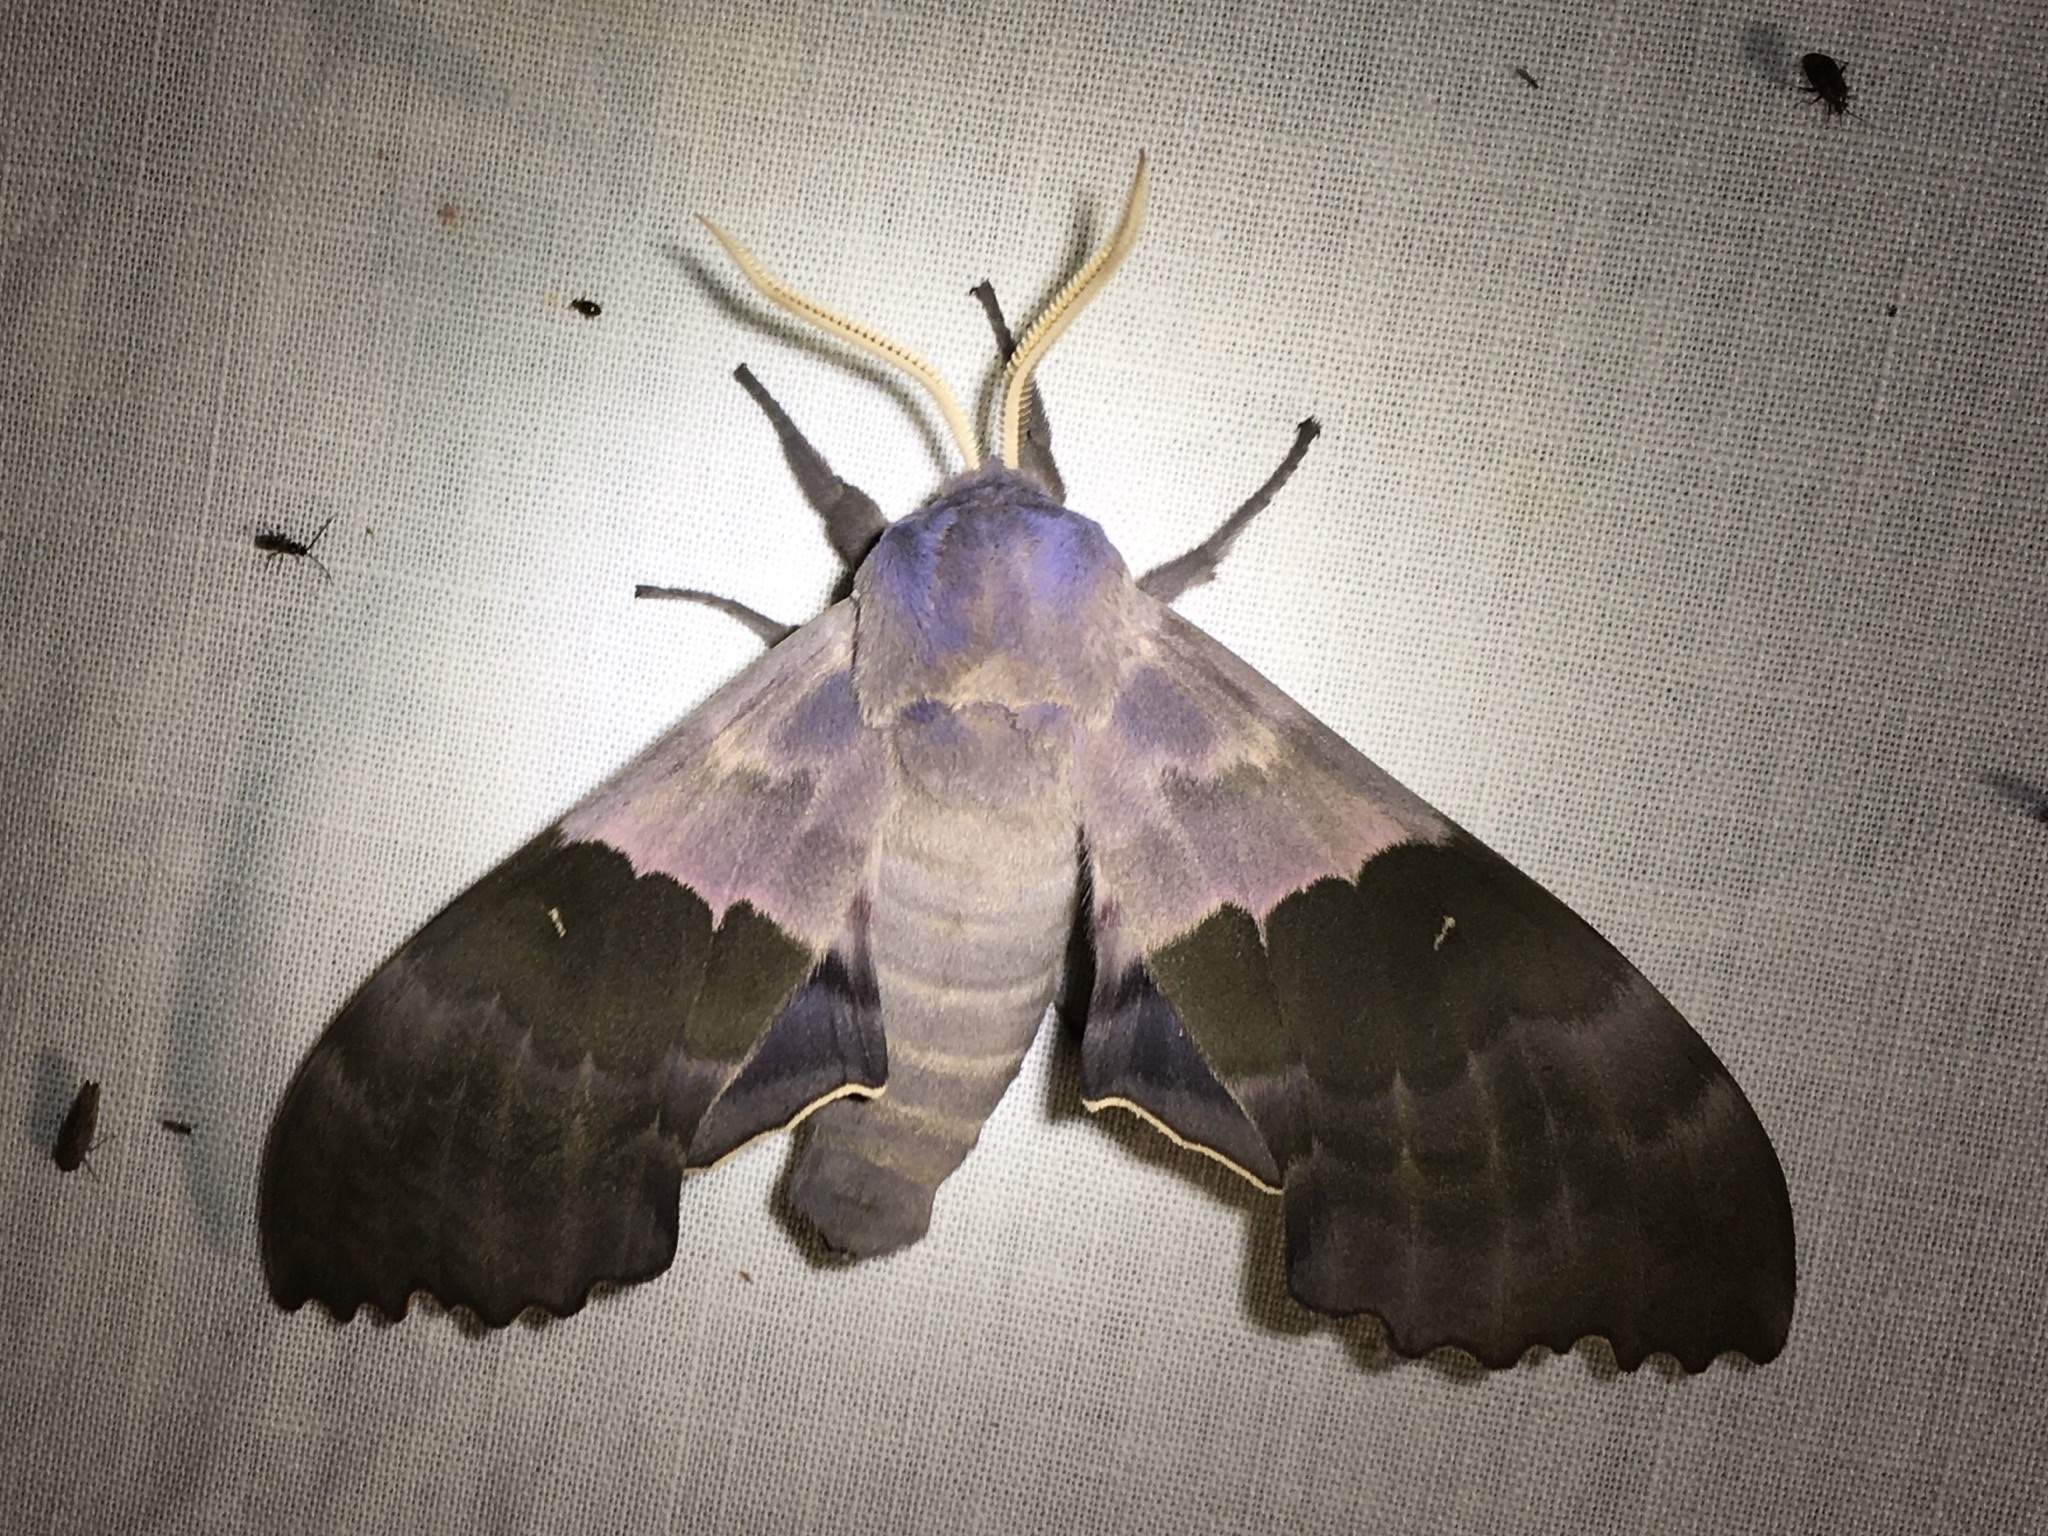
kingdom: Animalia
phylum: Arthropoda
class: Insecta
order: Lepidoptera
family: Sphingidae
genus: Pachysphinx
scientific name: Pachysphinx modesta
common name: Big poplar sphinx
